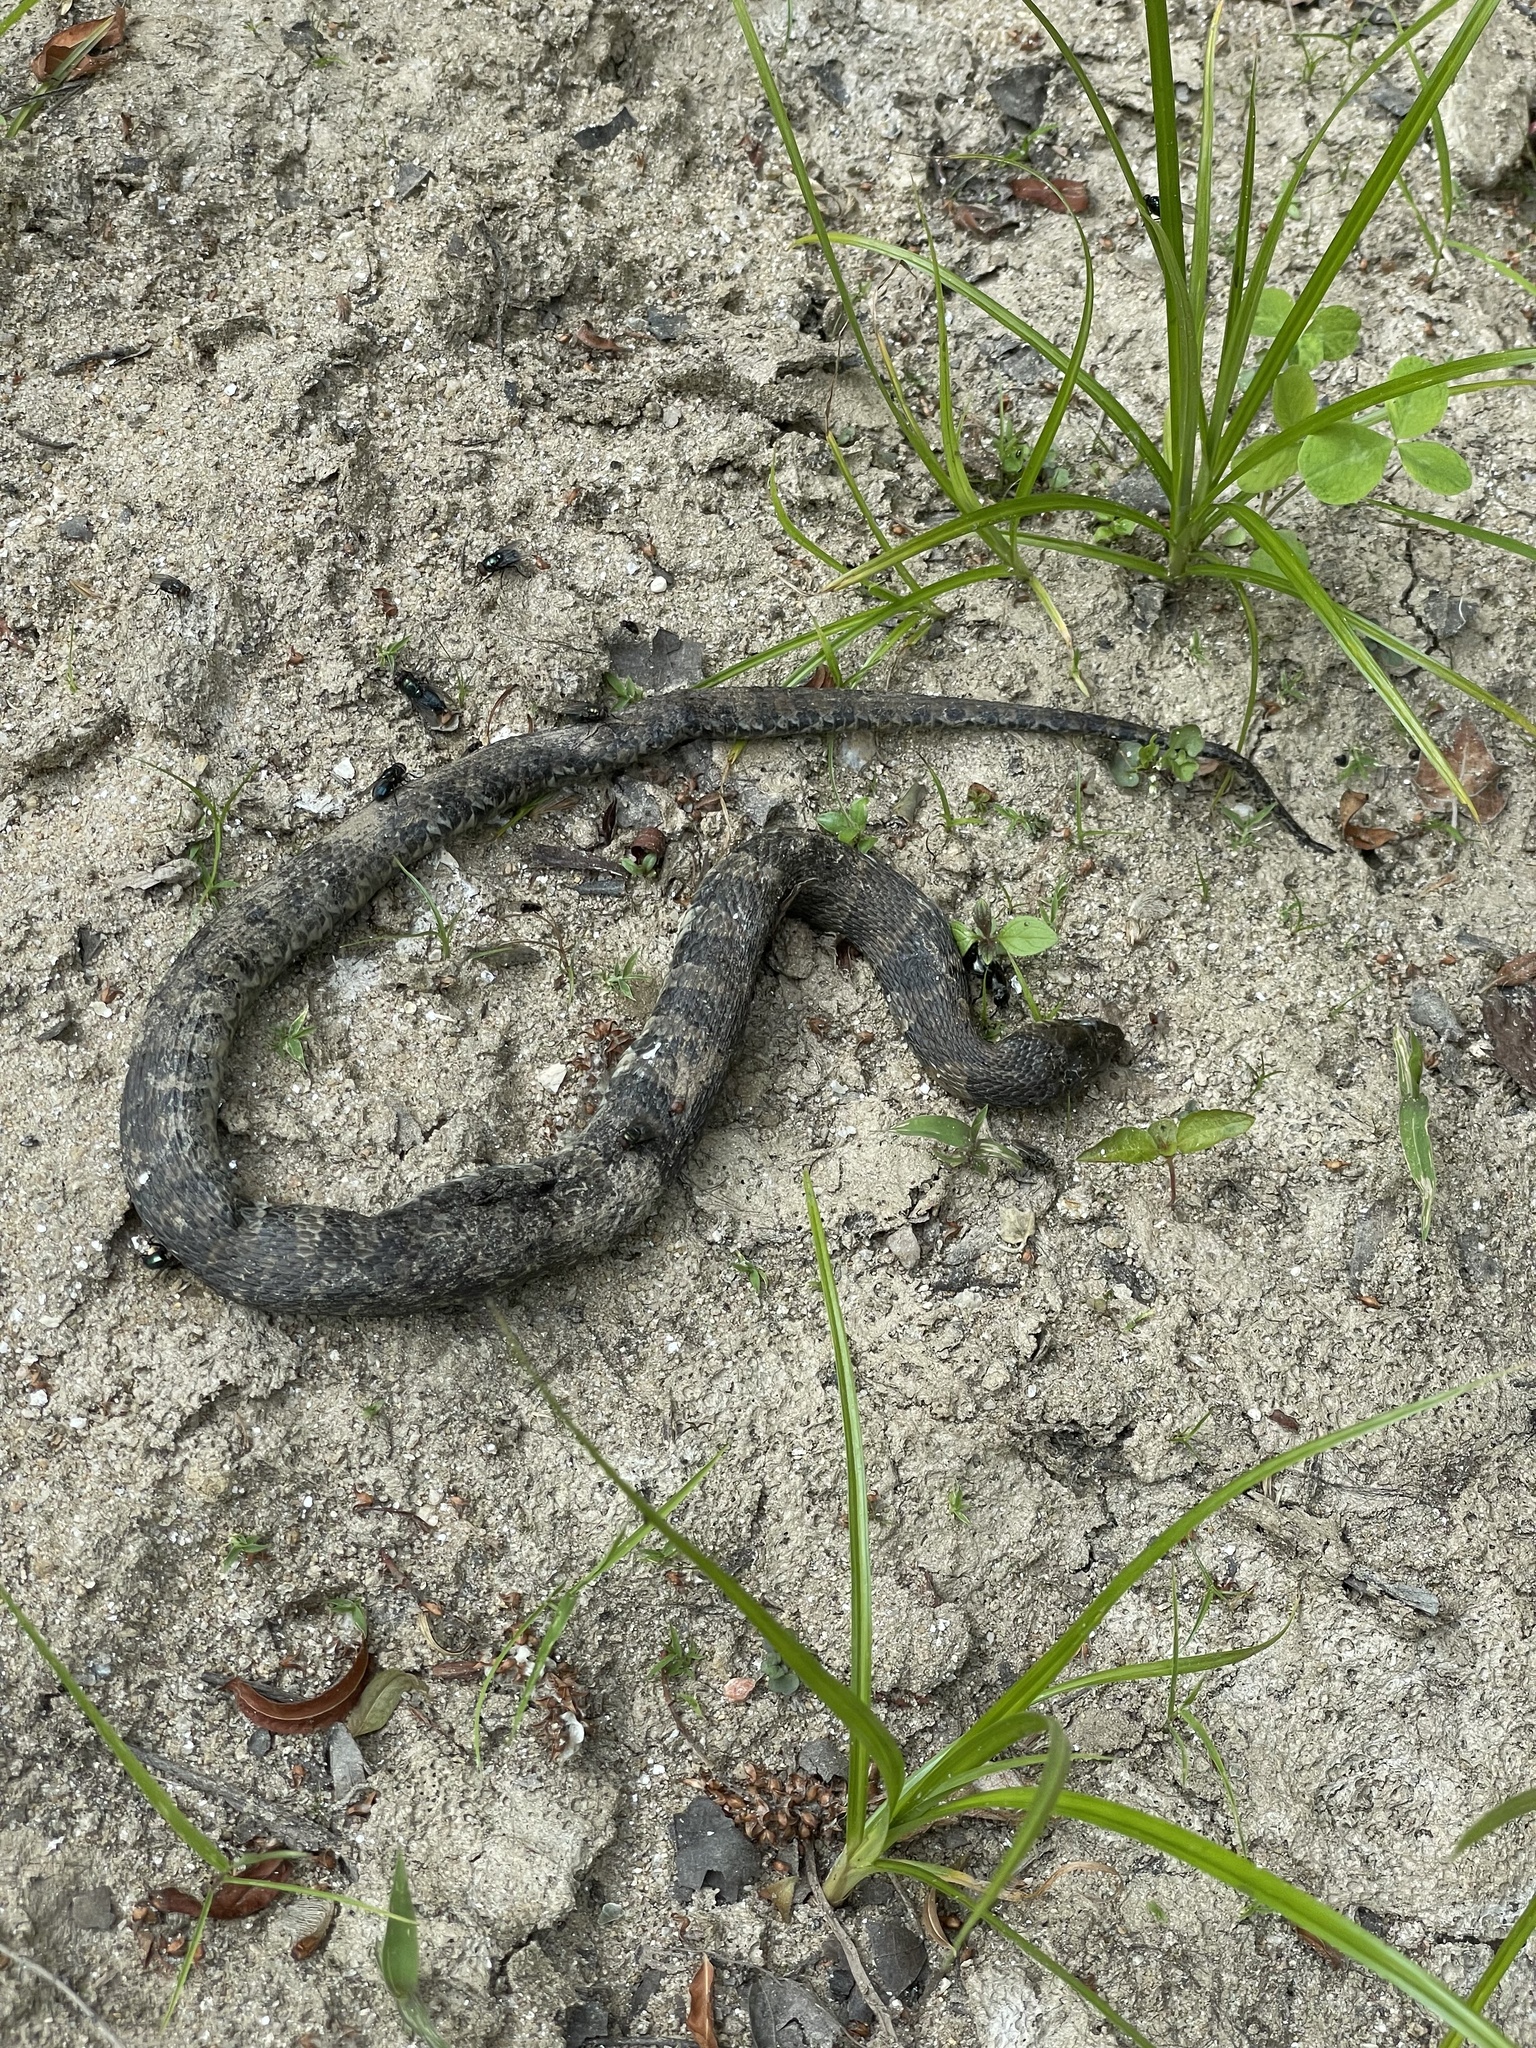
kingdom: Animalia
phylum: Chordata
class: Squamata
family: Colubridae
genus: Nerodia
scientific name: Nerodia sipedon
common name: Northern water snake
